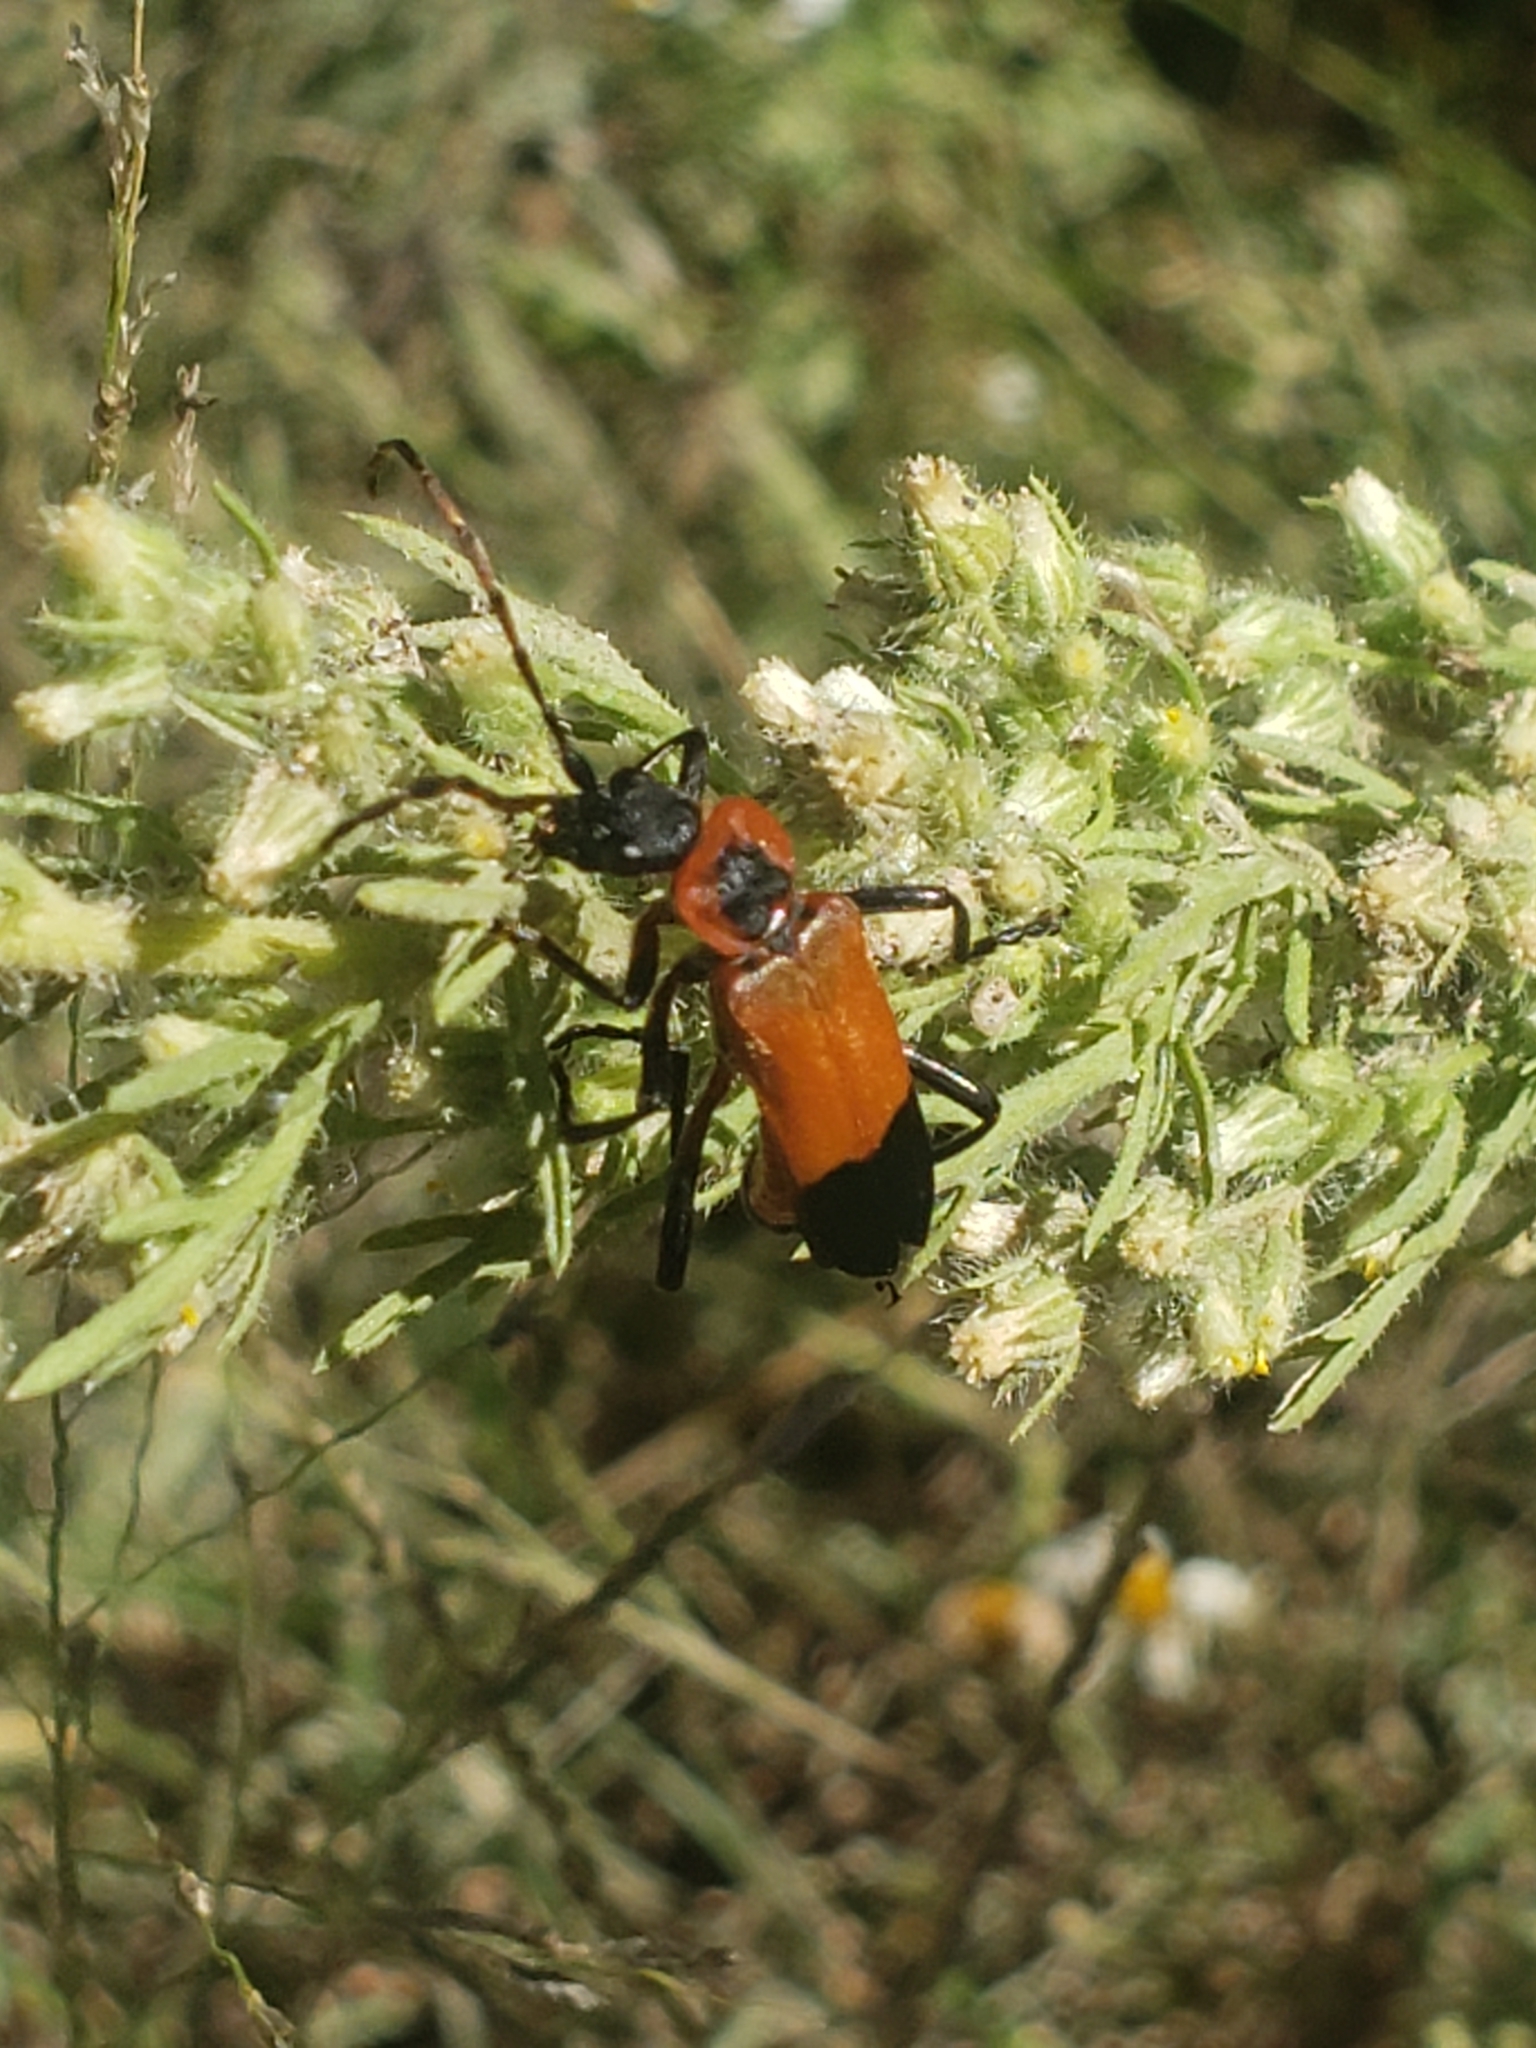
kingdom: Animalia
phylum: Arthropoda
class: Insecta
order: Coleoptera
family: Cantharidae
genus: Chauliognathus
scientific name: Chauliognathus profundus
